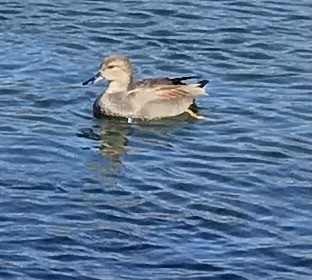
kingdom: Animalia
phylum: Chordata
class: Aves
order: Anseriformes
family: Anatidae
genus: Mareca
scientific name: Mareca strepera
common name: Gadwall
